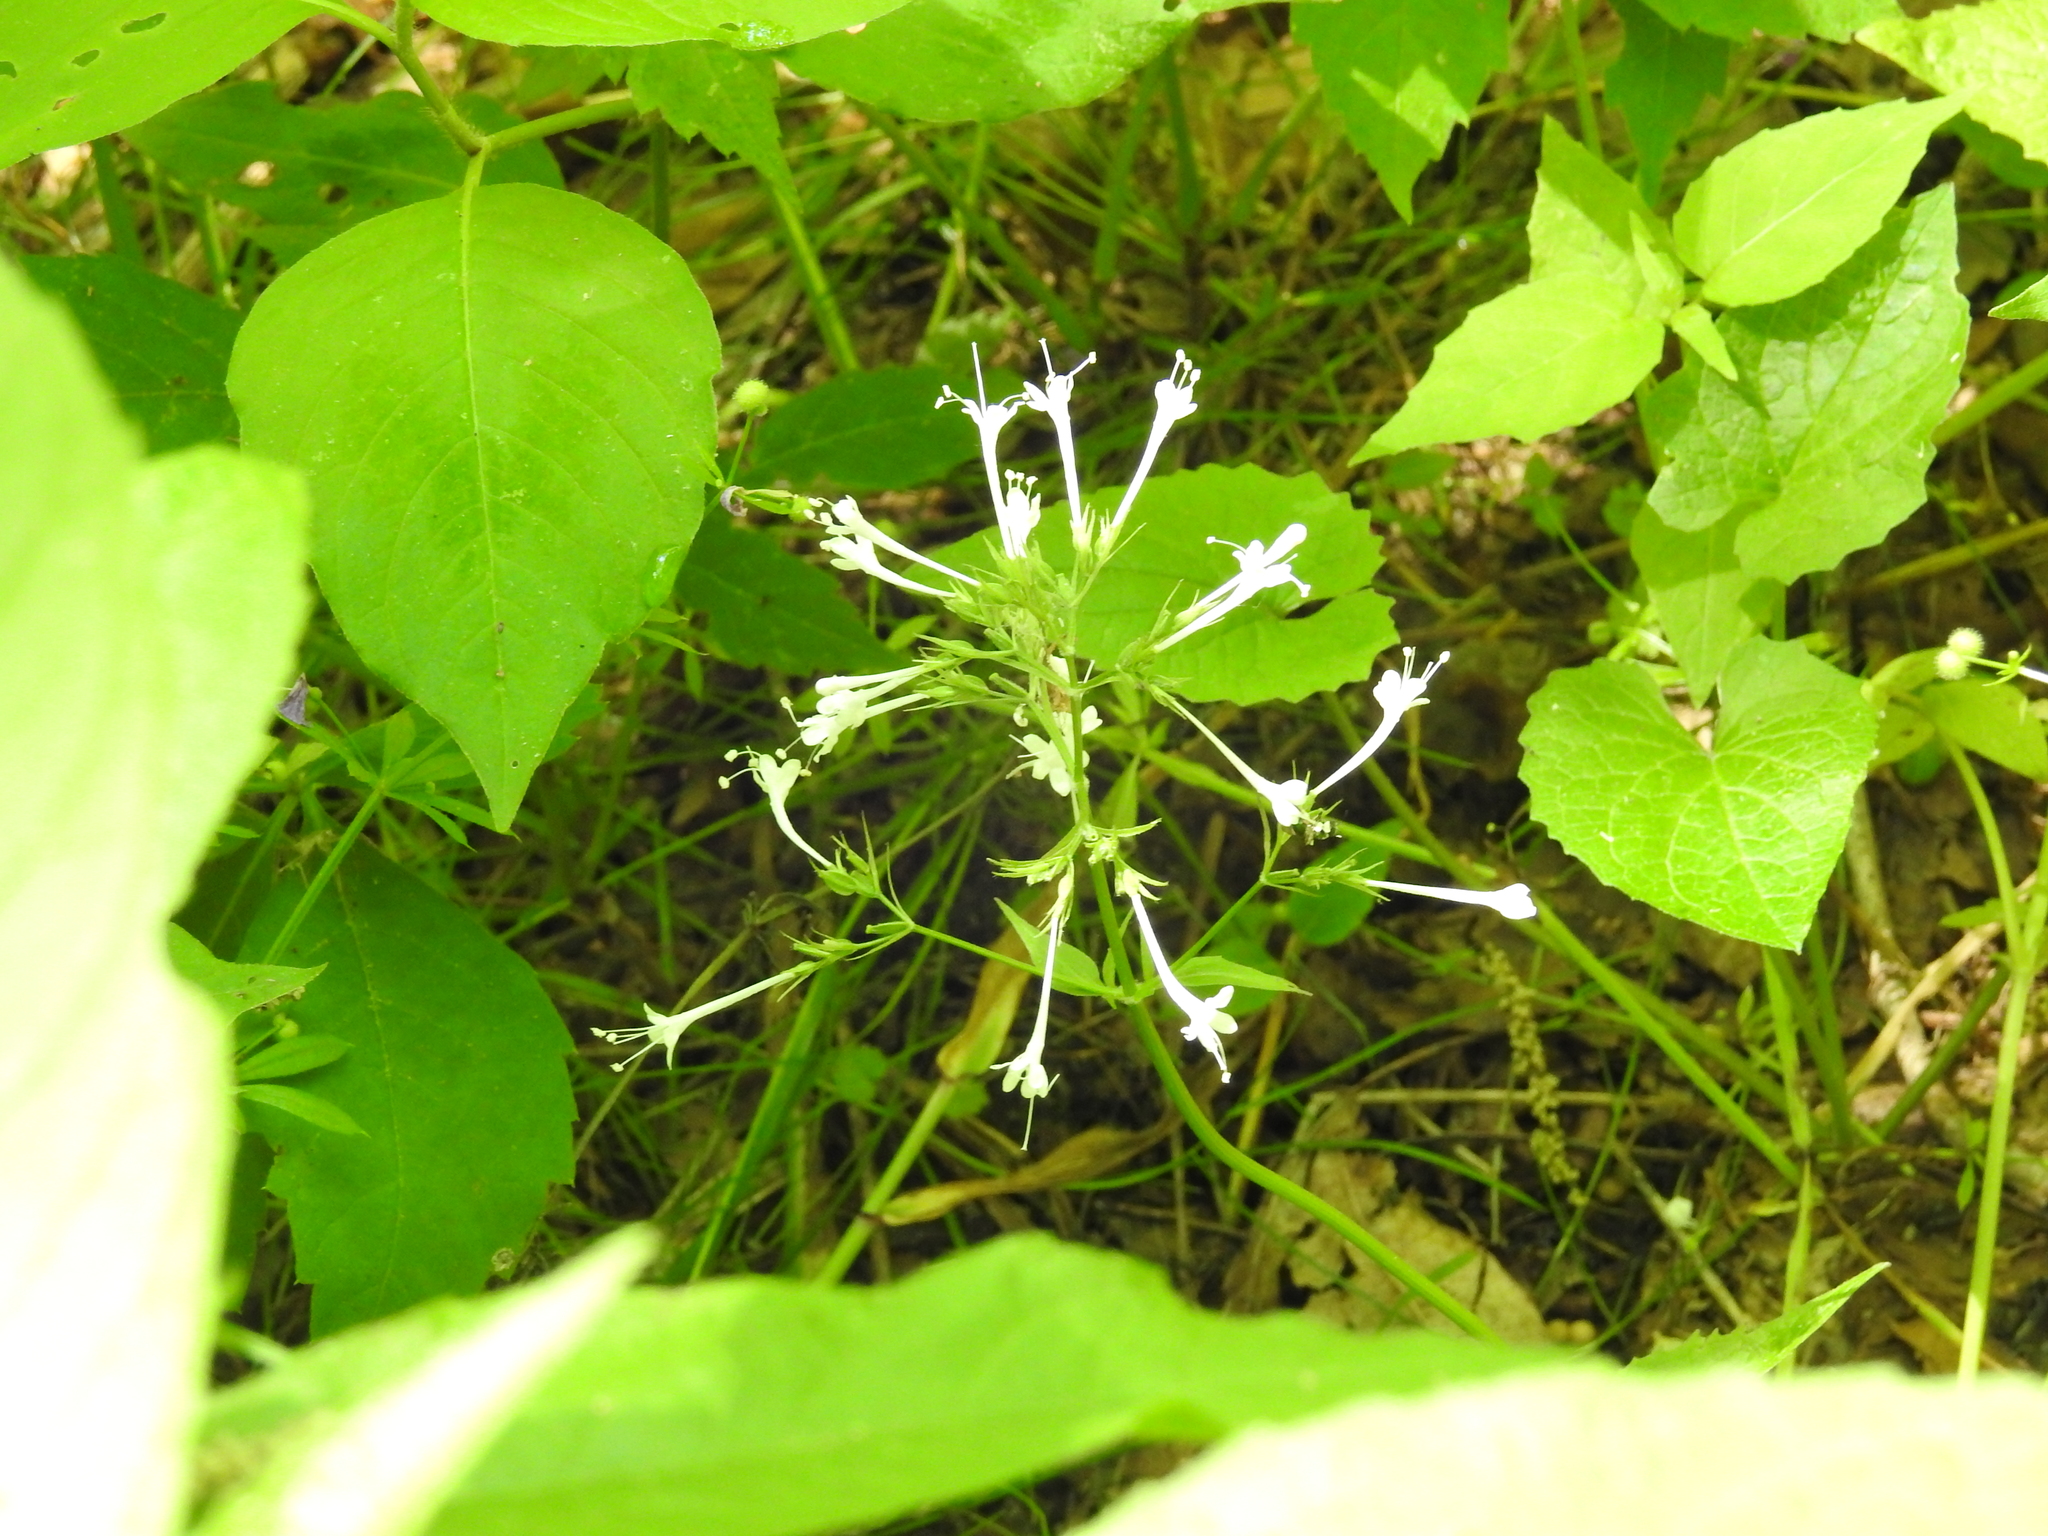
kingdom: Plantae
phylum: Tracheophyta
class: Magnoliopsida
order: Dipsacales
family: Caprifoliaceae
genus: Valeriana
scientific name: Valeriana pauciflora
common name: Long-tube valeriana
